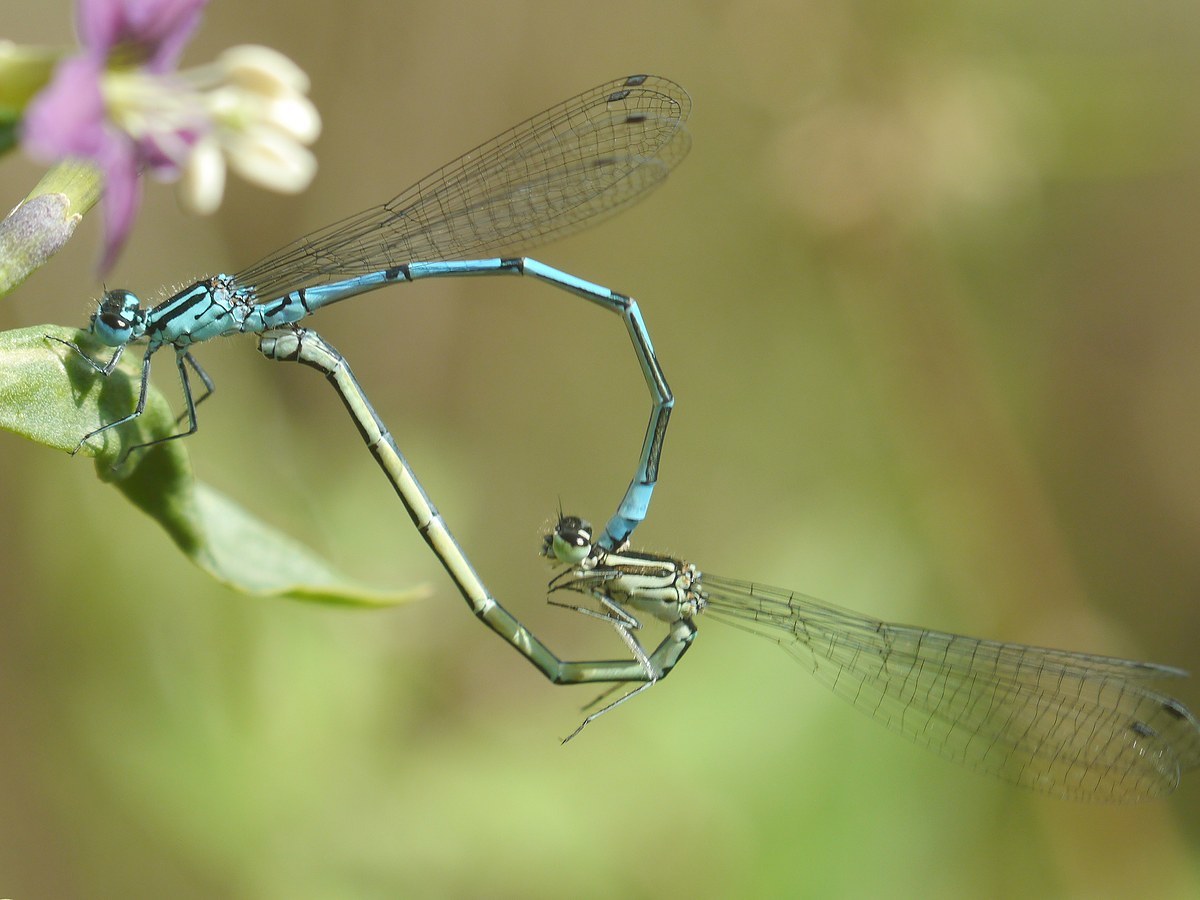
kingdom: Animalia
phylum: Arthropoda
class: Insecta
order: Odonata
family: Coenagrionidae
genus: Coenagrion
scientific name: Coenagrion puella
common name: Azure damselfly
